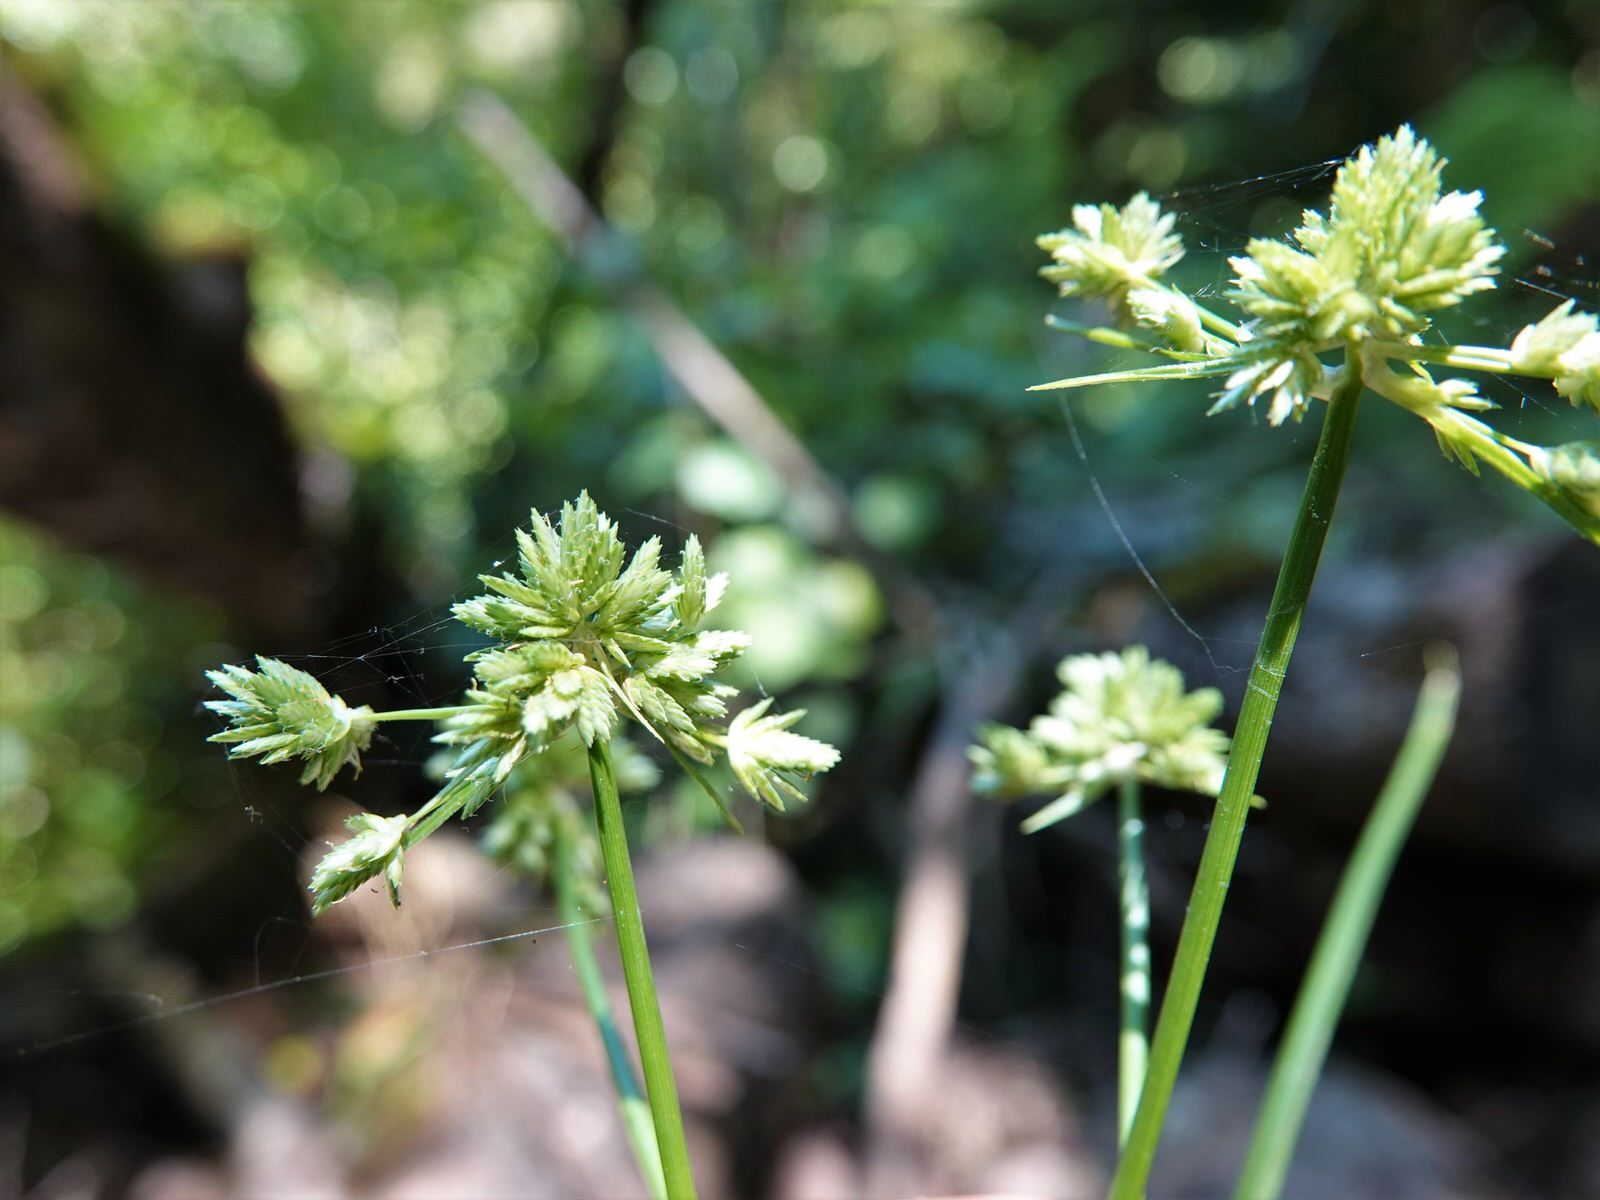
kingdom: Plantae
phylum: Tracheophyta
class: Liliopsida
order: Poales
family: Cyperaceae
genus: Cyperus
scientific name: Cyperus eragrostis
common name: Tall flatsedge
